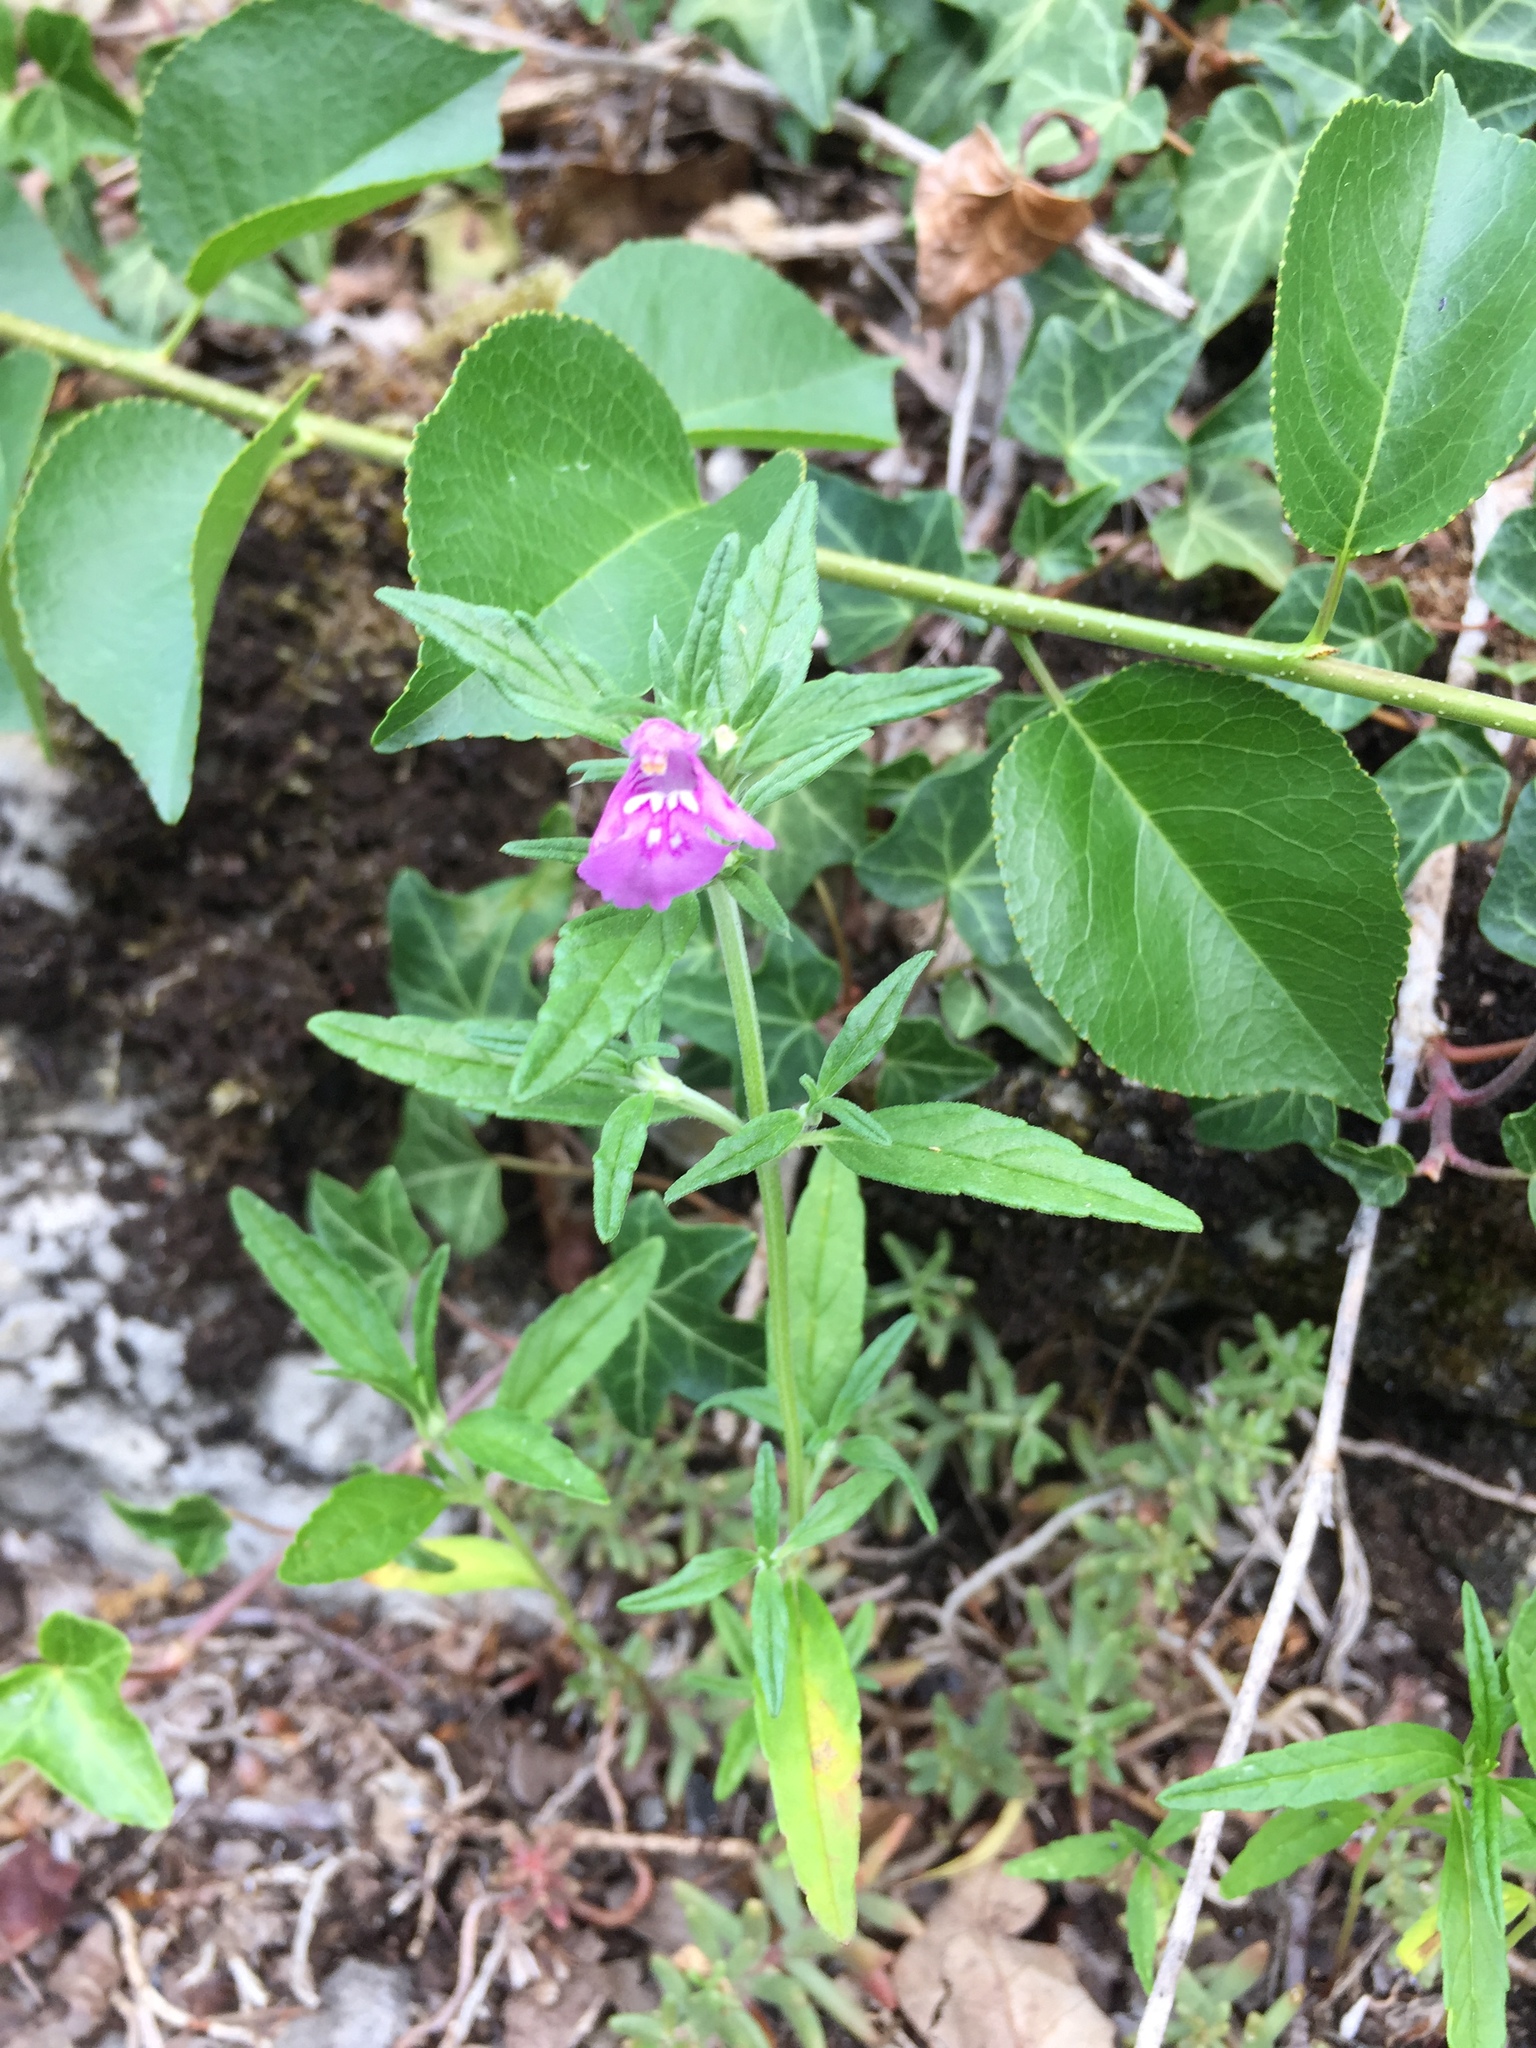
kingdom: Plantae
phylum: Tracheophyta
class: Magnoliopsida
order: Lamiales
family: Lamiaceae
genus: Galeopsis
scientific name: Galeopsis angustifolia
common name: Red hemp-nettle
